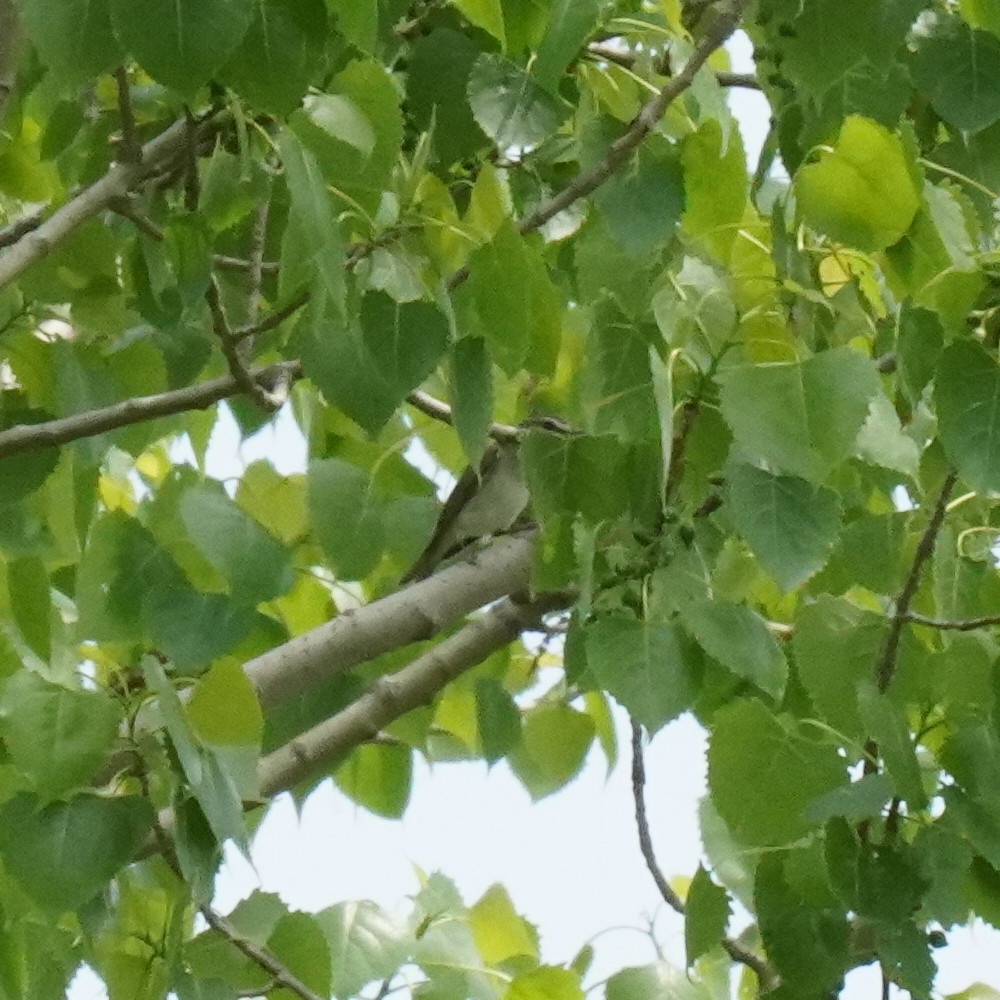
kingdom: Animalia
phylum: Chordata
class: Aves
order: Passeriformes
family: Vireonidae
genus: Vireo
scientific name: Vireo olivaceus
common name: Red-eyed vireo
